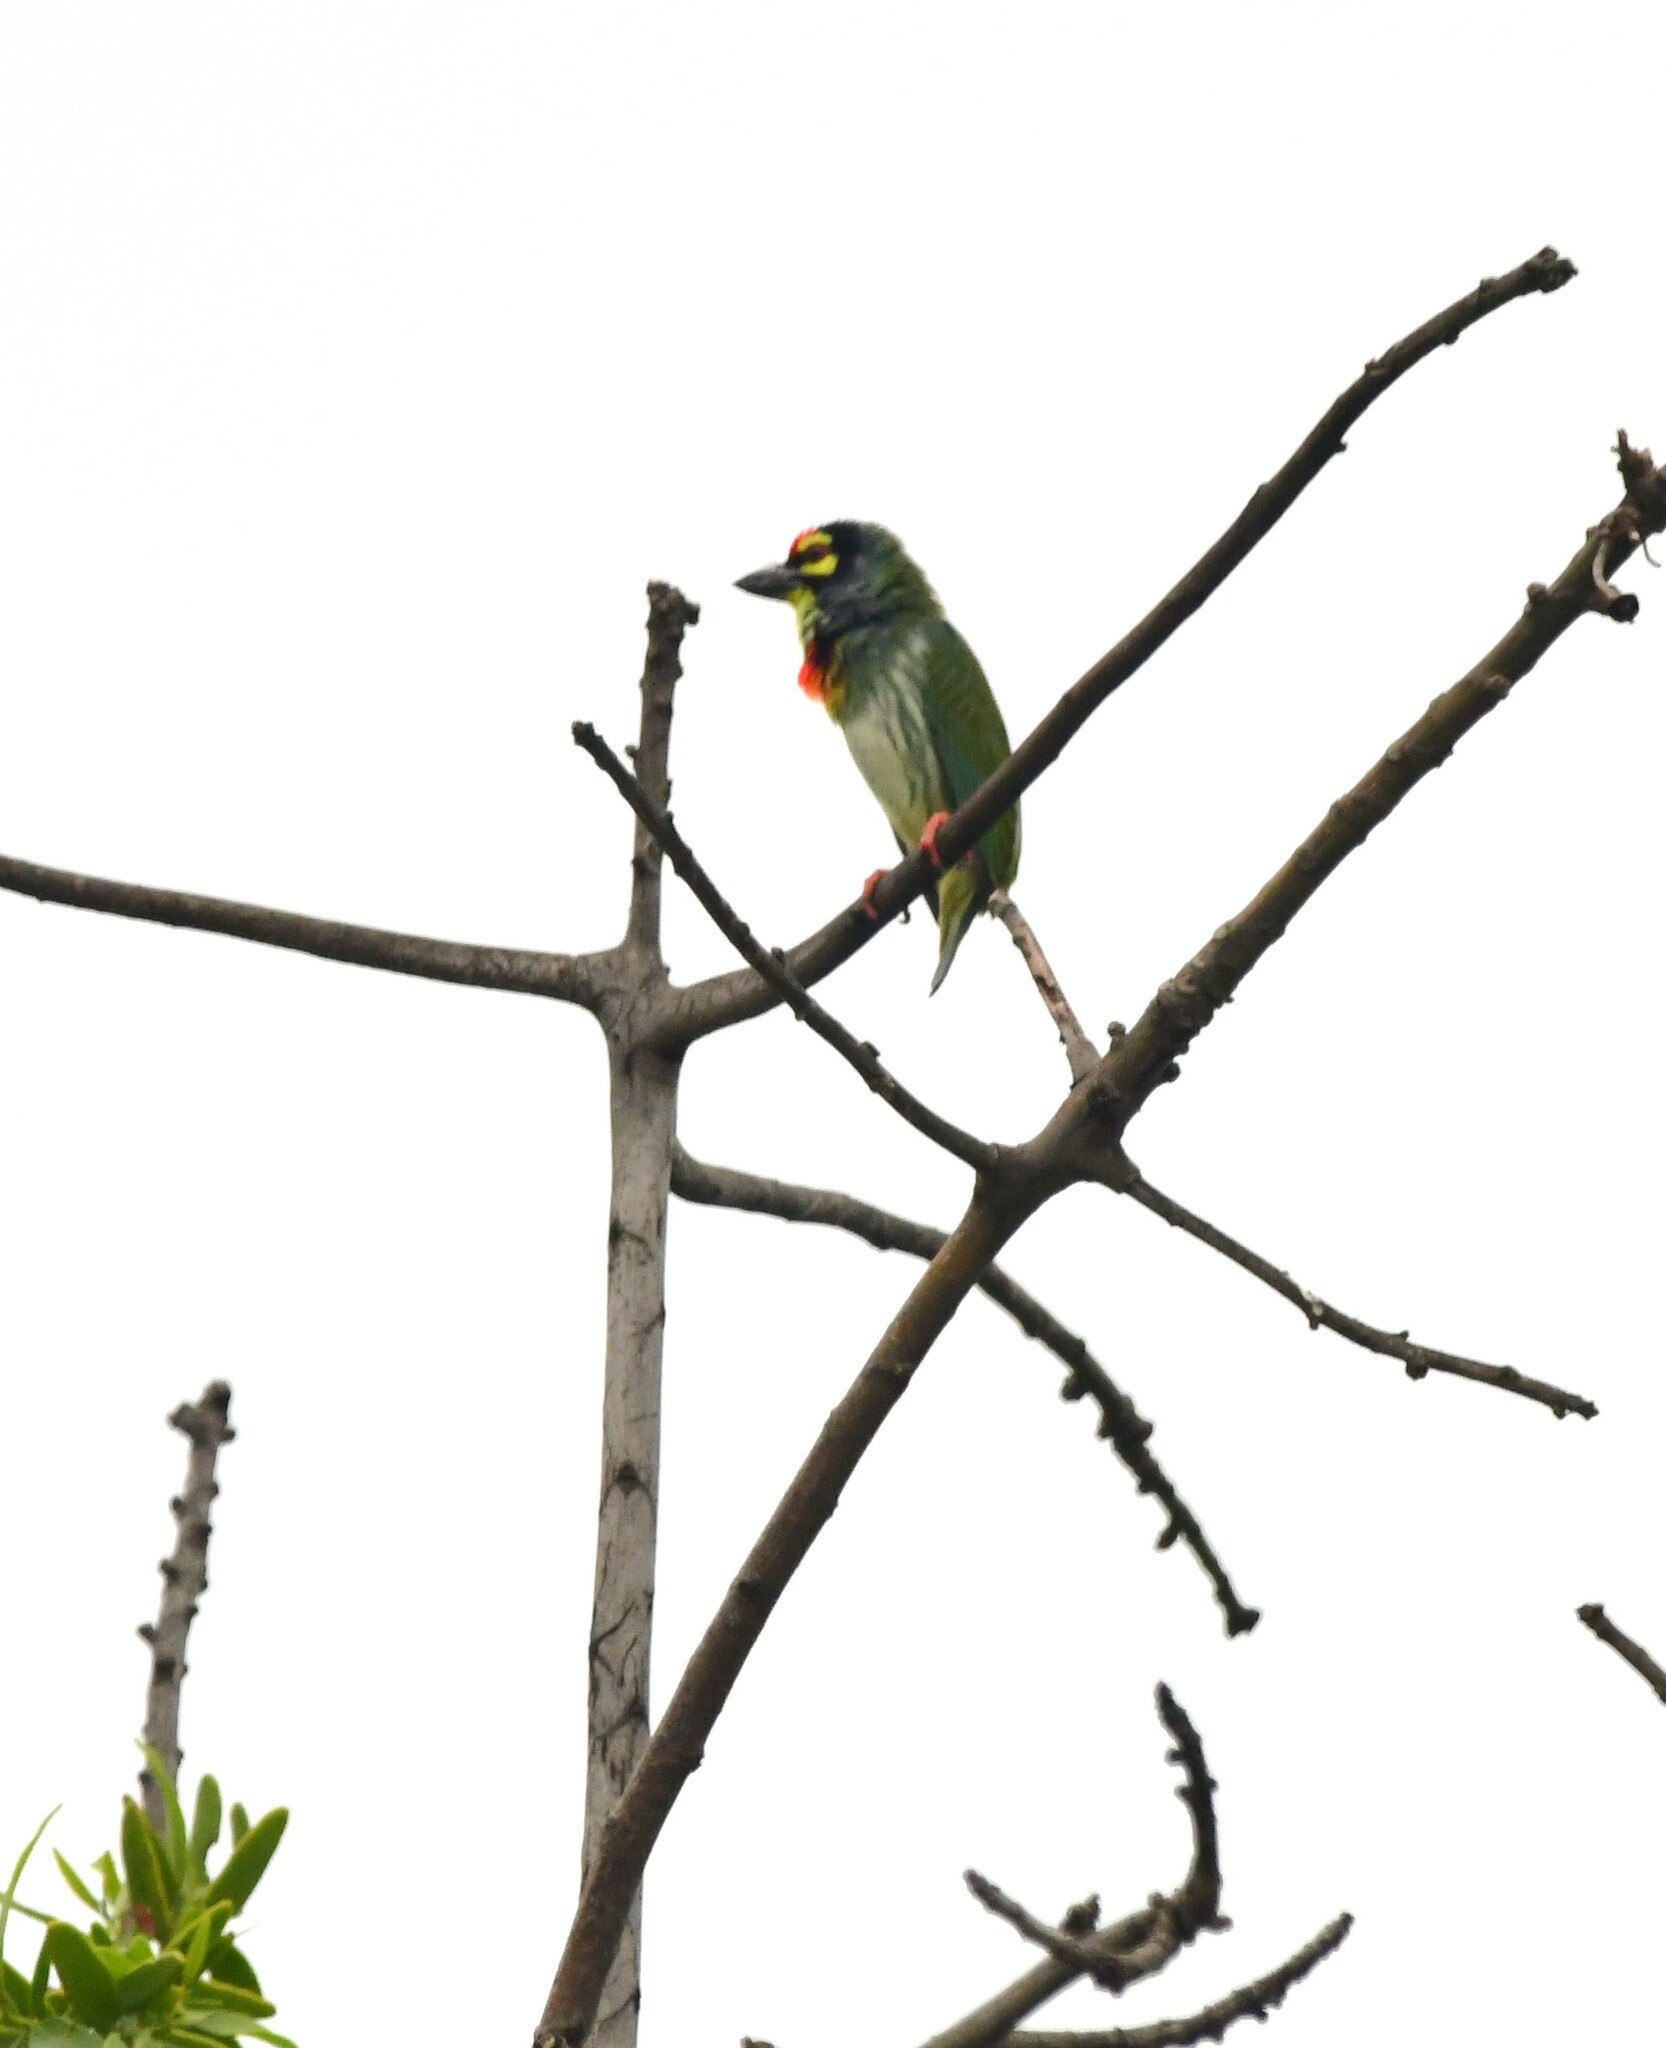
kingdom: Animalia
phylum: Chordata
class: Aves
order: Piciformes
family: Megalaimidae
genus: Psilopogon
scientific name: Psilopogon haemacephalus
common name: Coppersmith barbet
